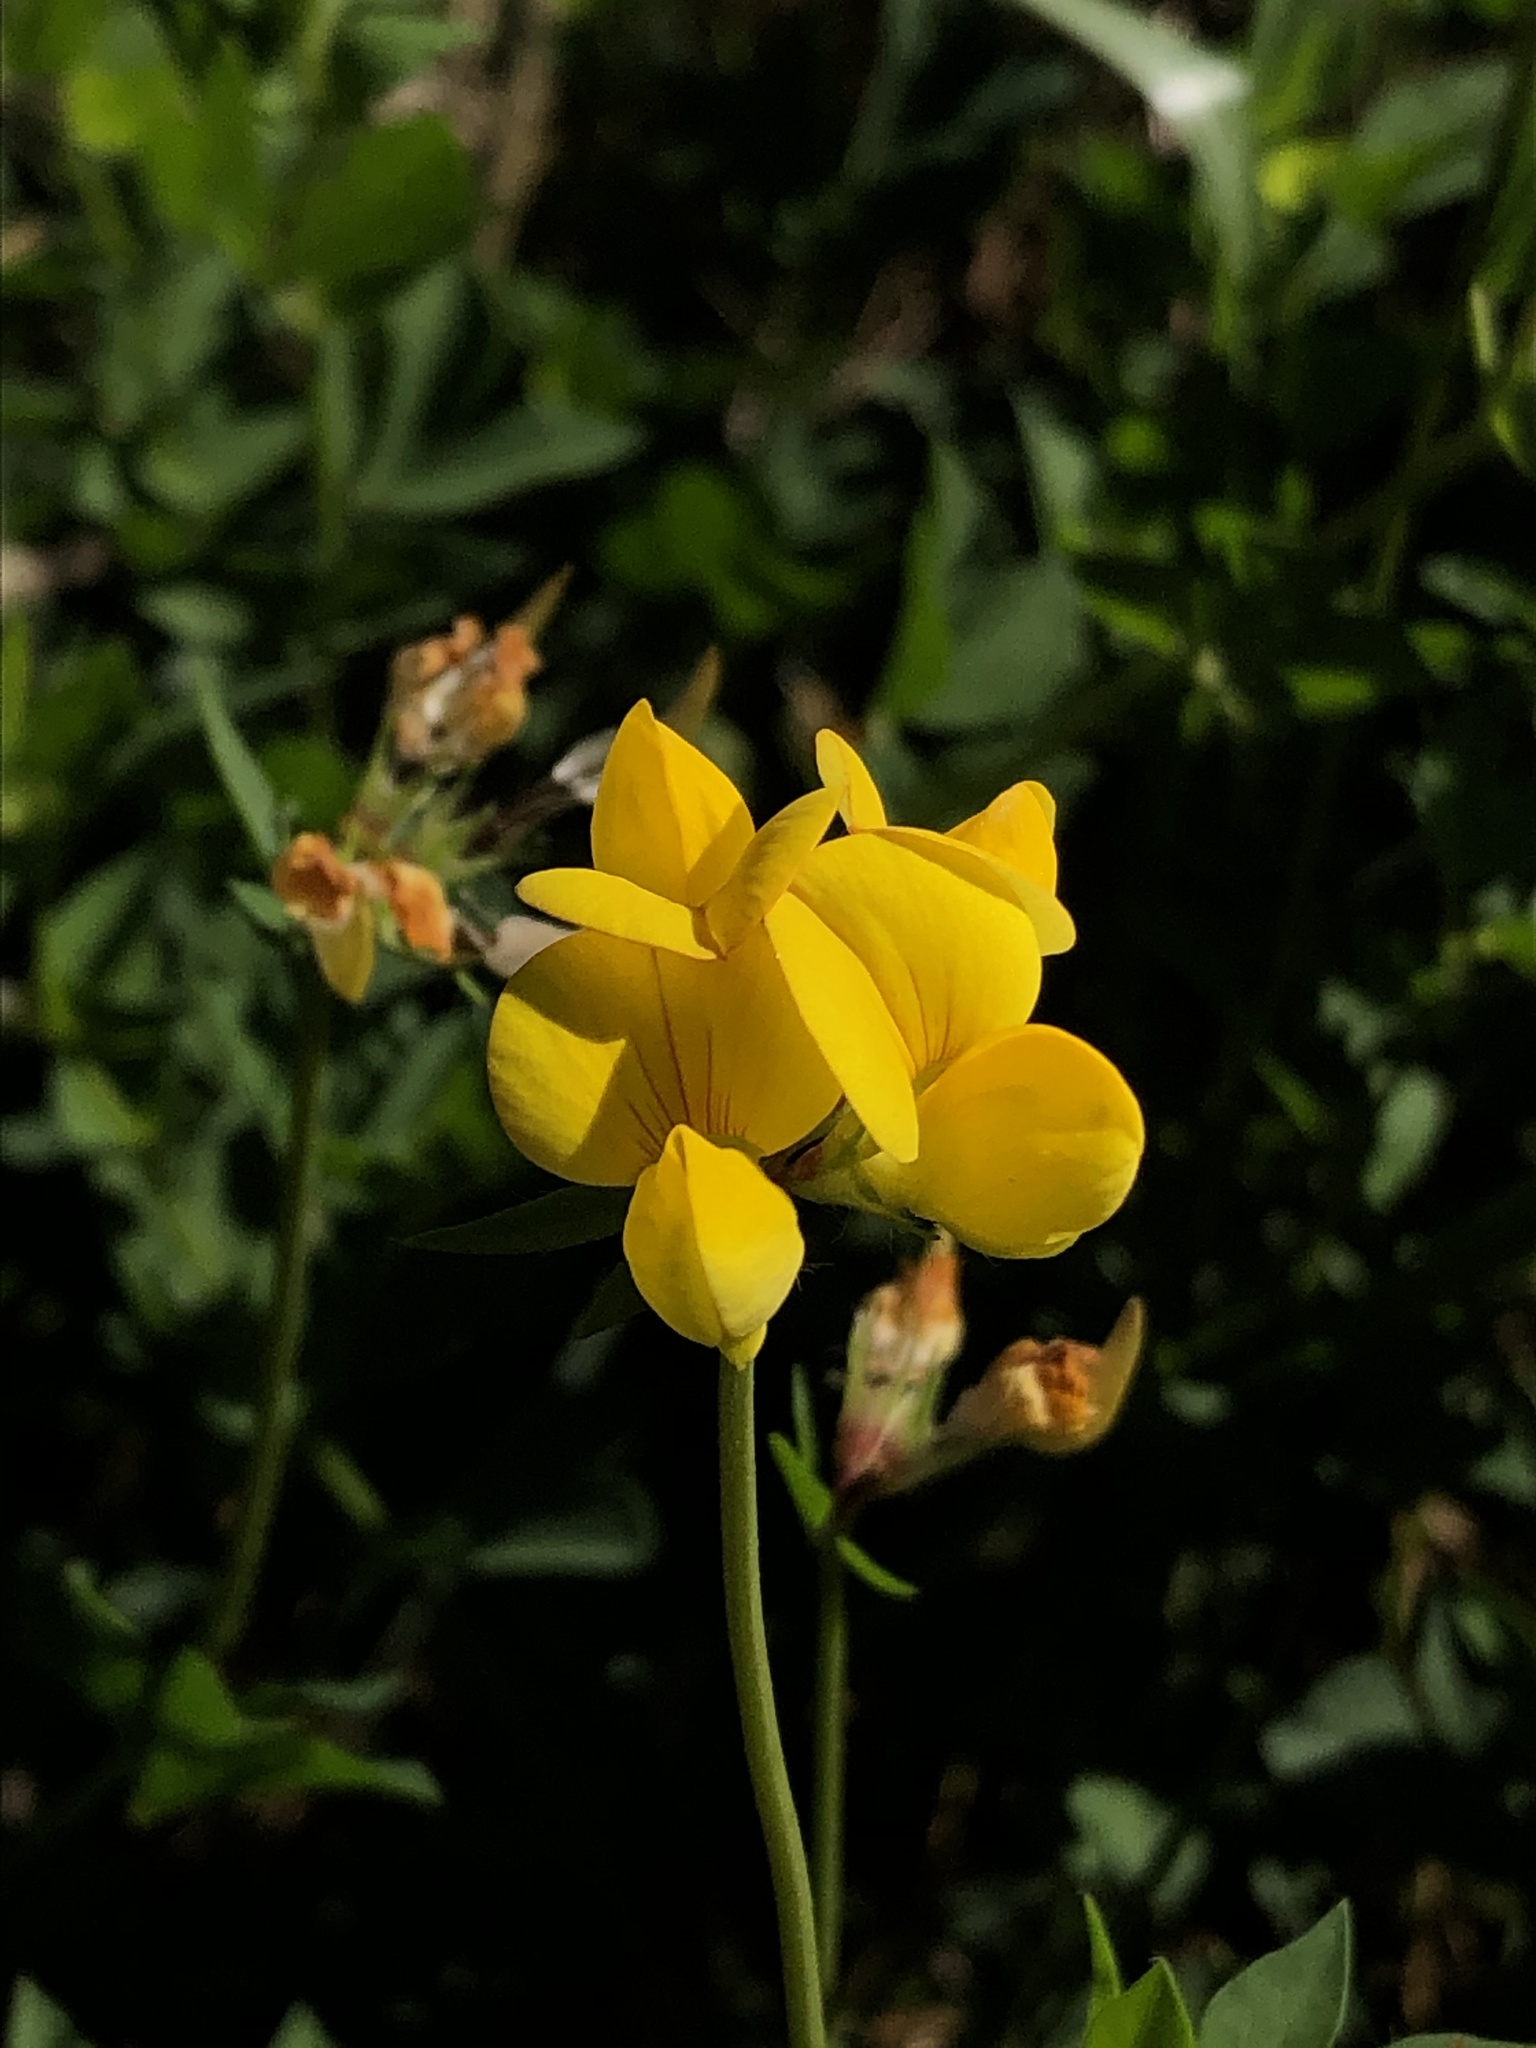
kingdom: Plantae
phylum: Tracheophyta
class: Magnoliopsida
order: Fabales
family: Fabaceae
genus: Lotus
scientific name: Lotus corniculatus
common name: Common bird's-foot-trefoil
